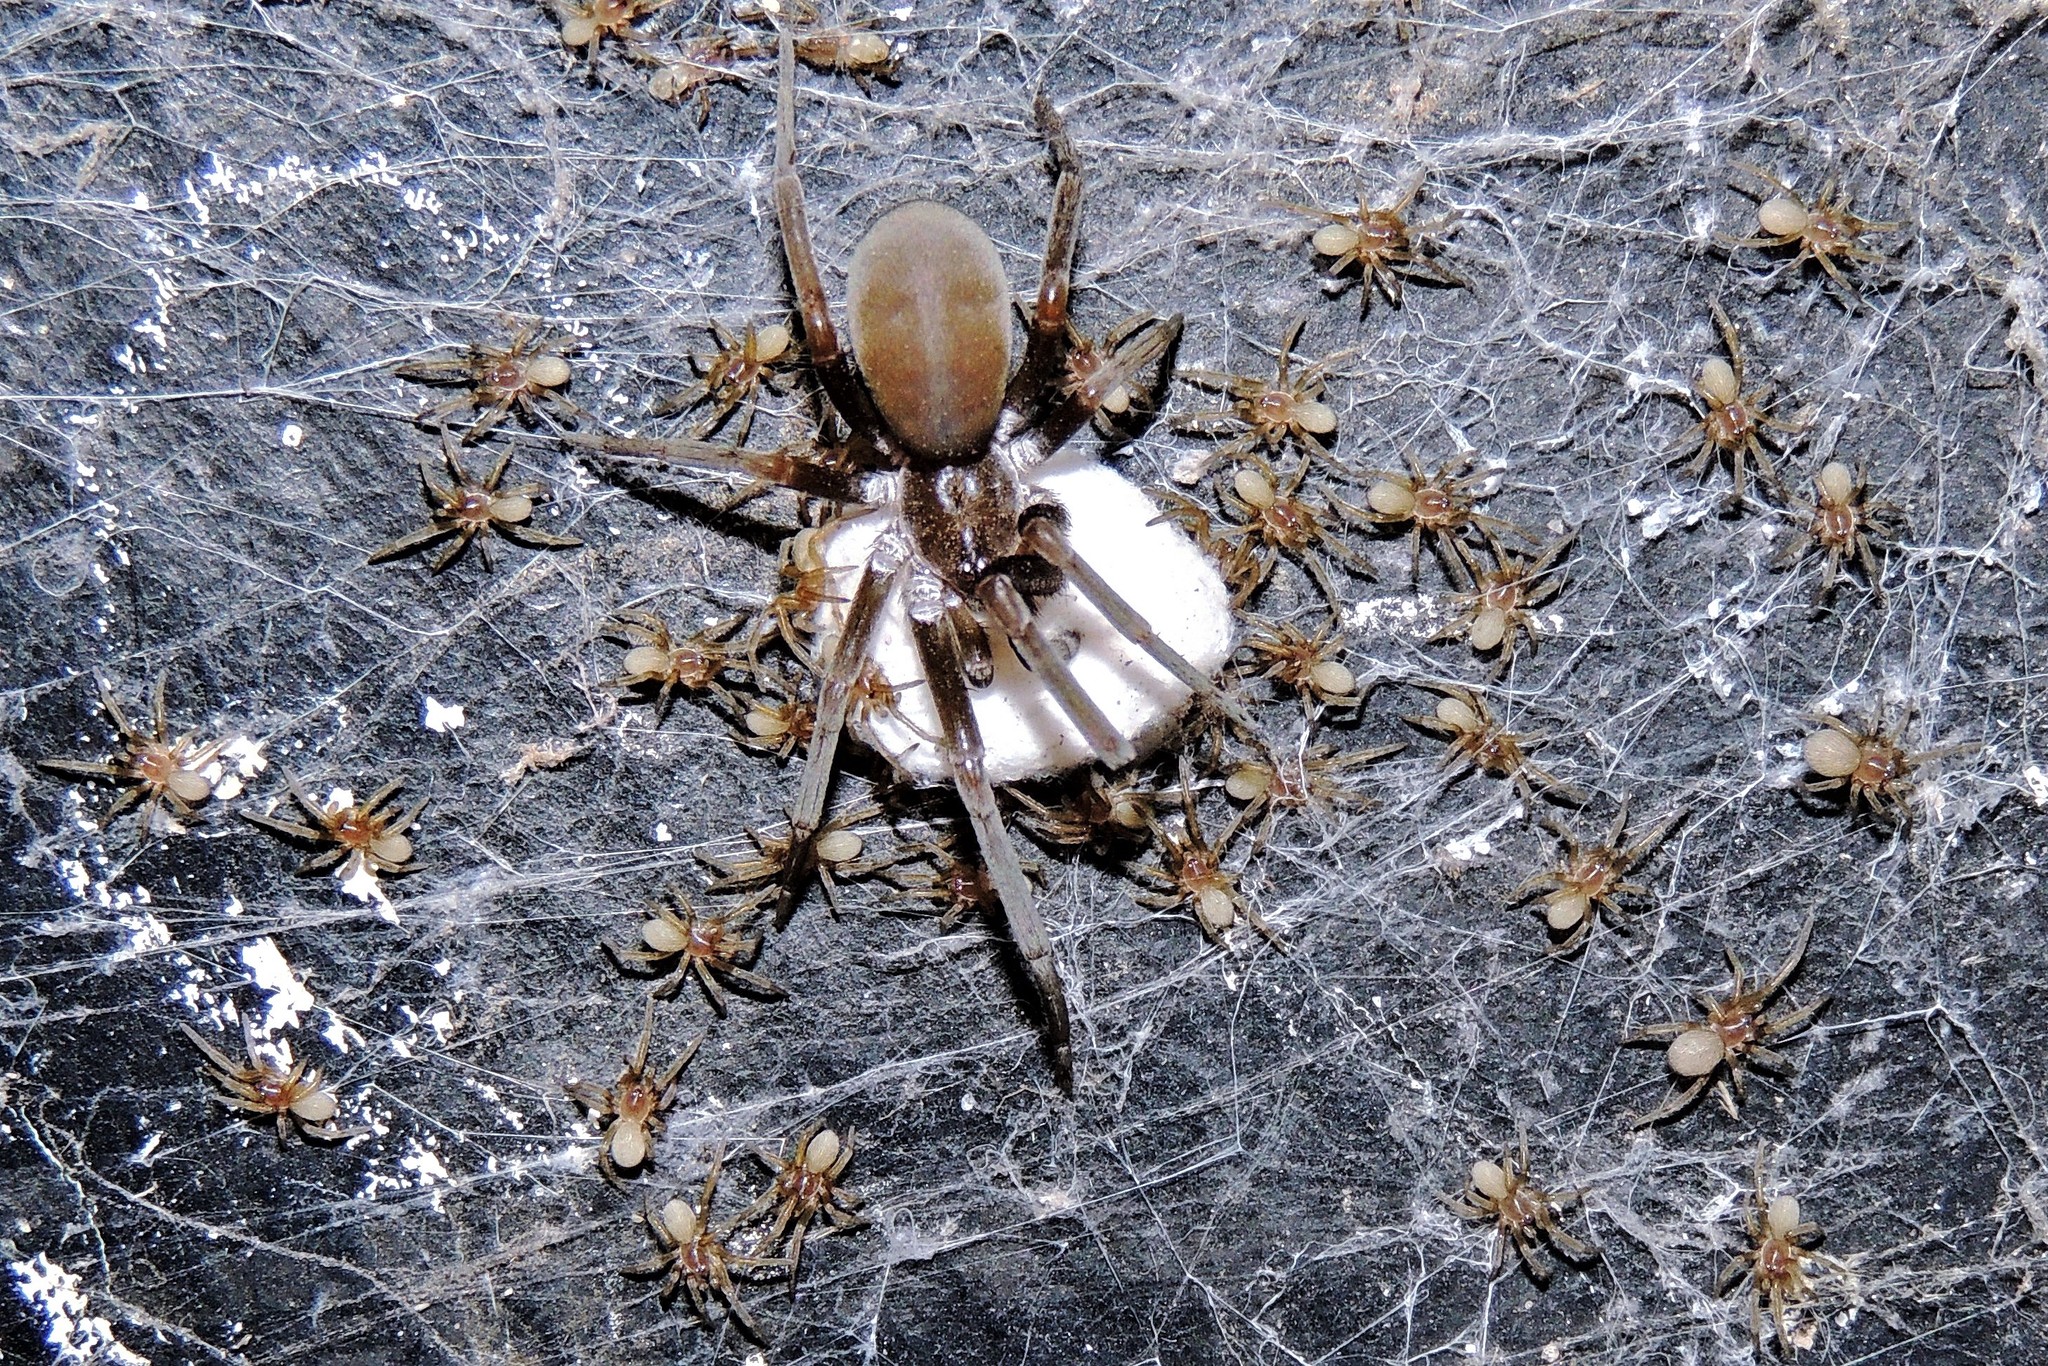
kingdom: Animalia
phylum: Arthropoda
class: Arachnida
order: Araneae
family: Filistatidae
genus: Kukulcania
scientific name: Kukulcania hibernalis
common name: Crevice weaver
